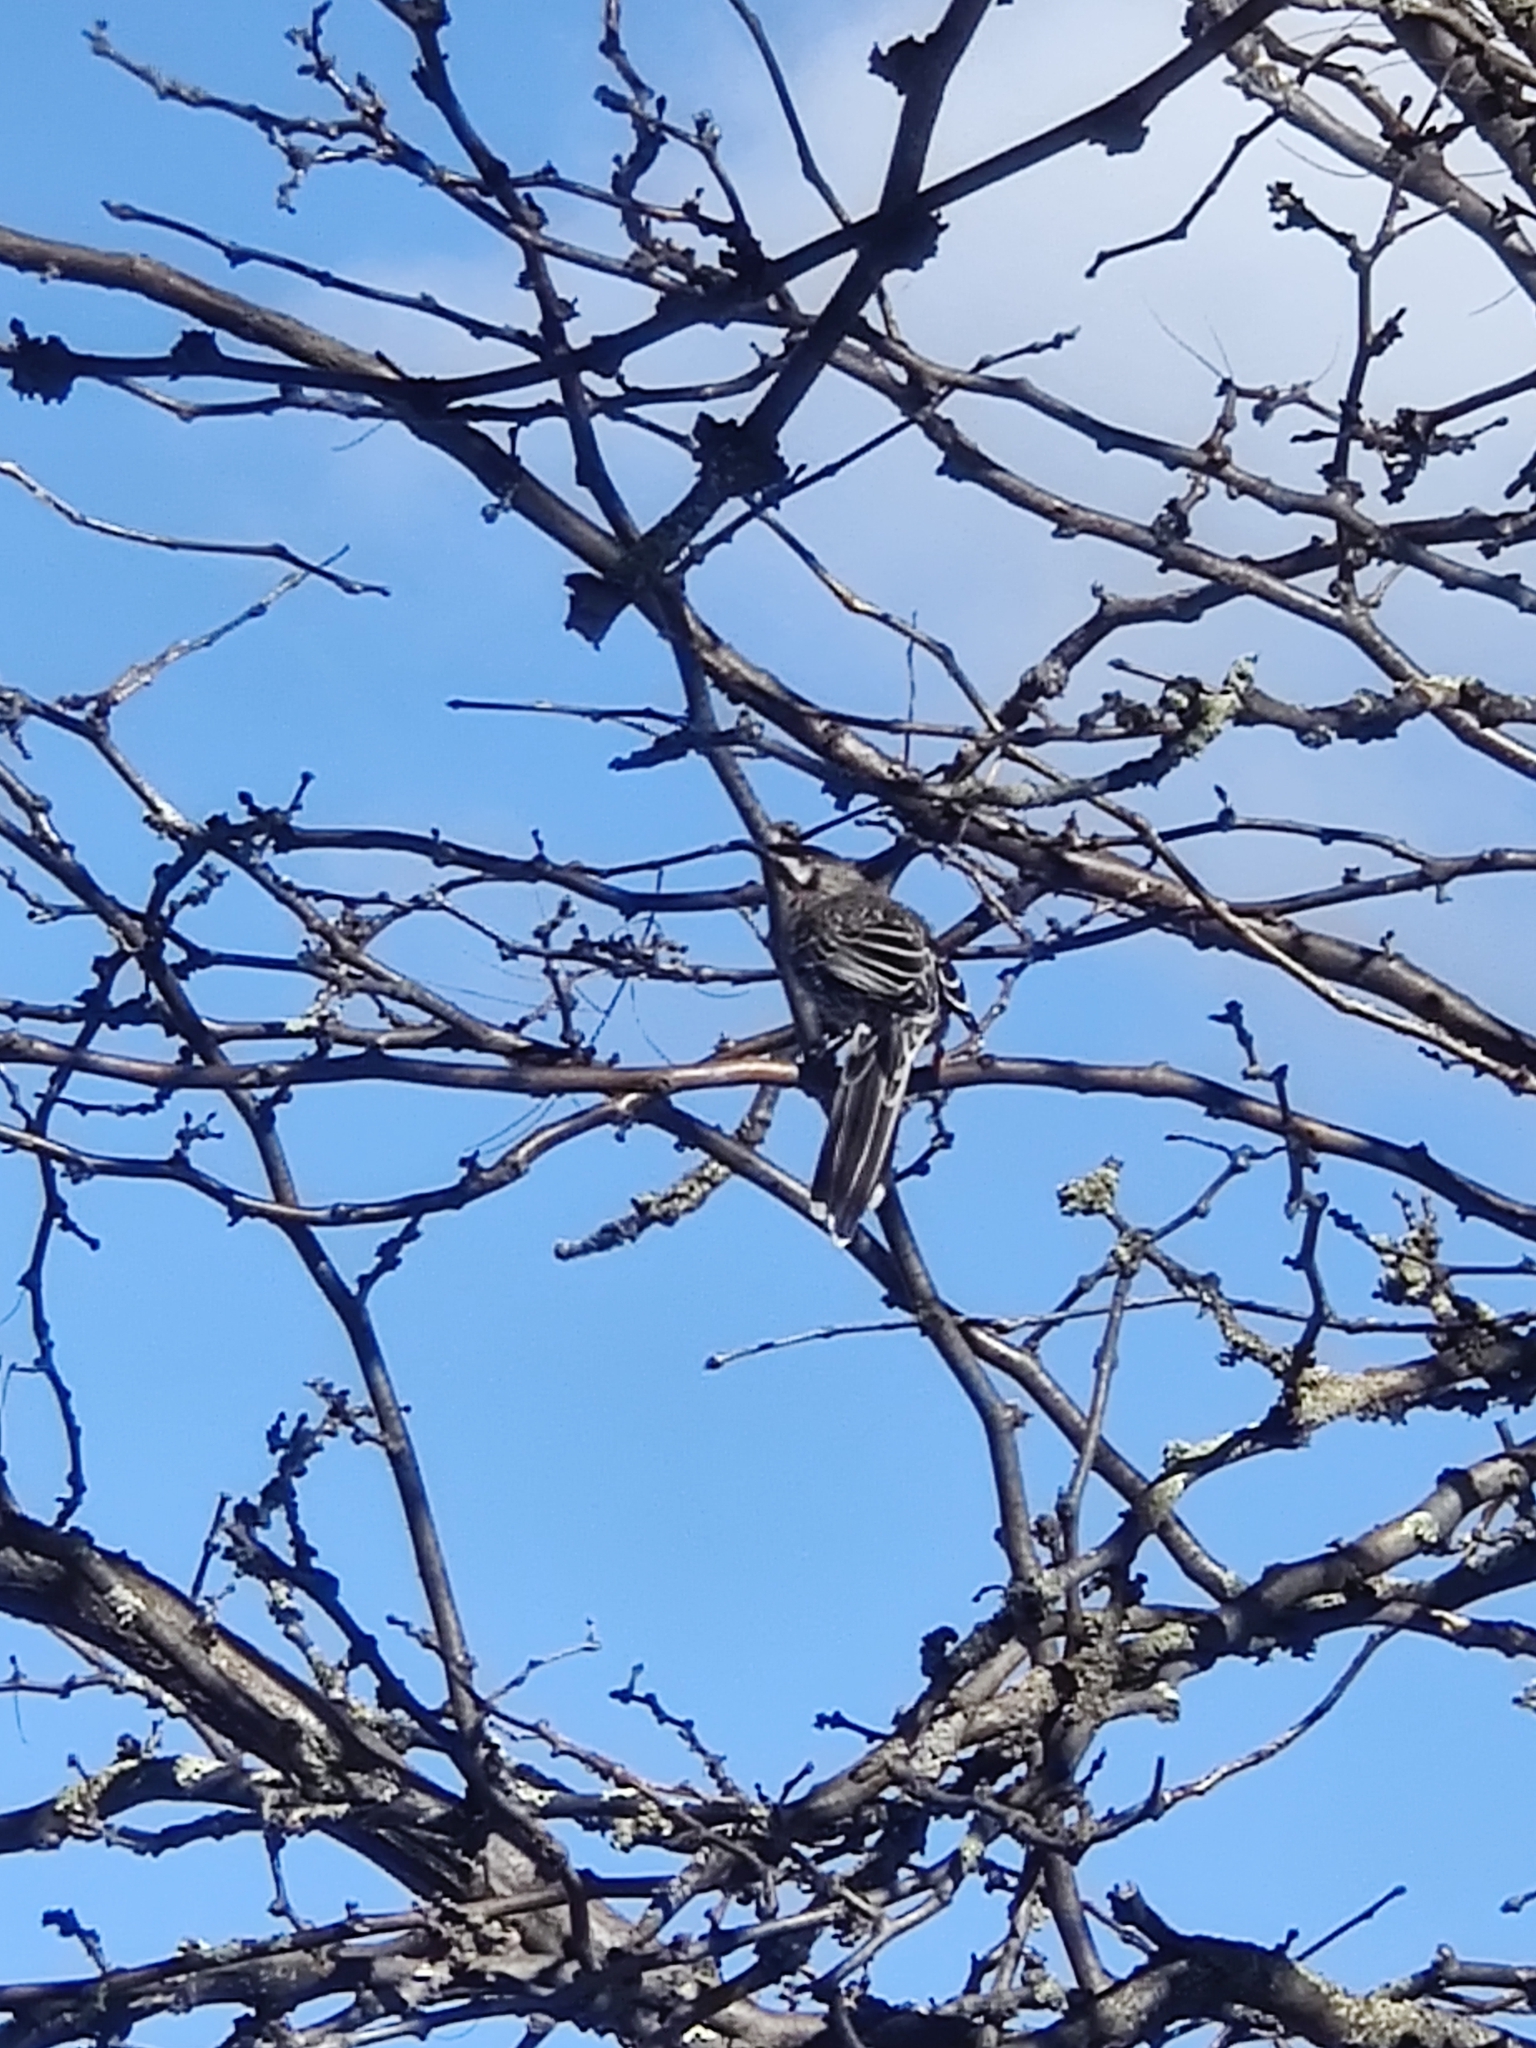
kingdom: Animalia
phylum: Chordata
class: Aves
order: Passeriformes
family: Meliphagidae
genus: Anthochaera
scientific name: Anthochaera carunculata
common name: Red wattlebird
